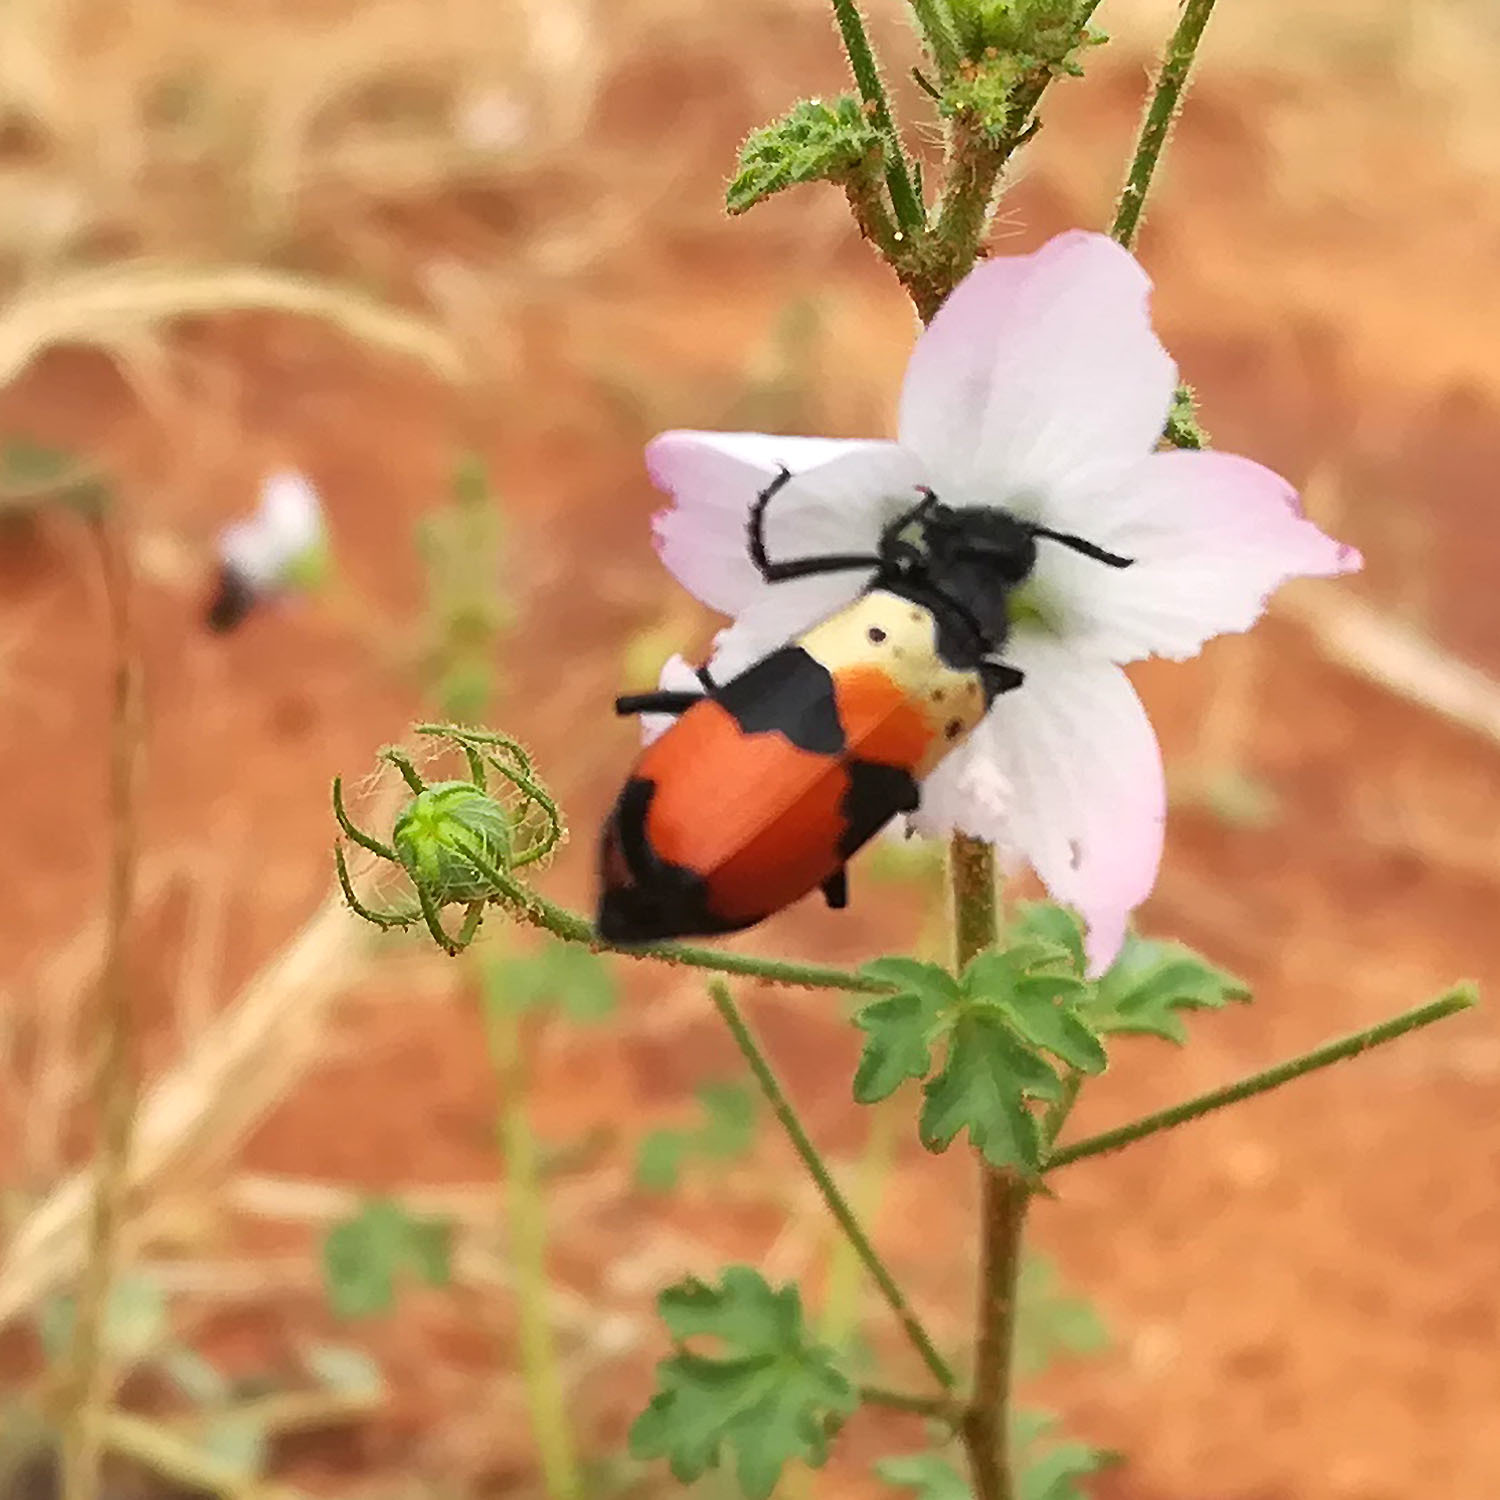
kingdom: Animalia
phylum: Arthropoda
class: Insecta
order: Coleoptera
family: Meloidae
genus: Hycleus
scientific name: Hycleus
